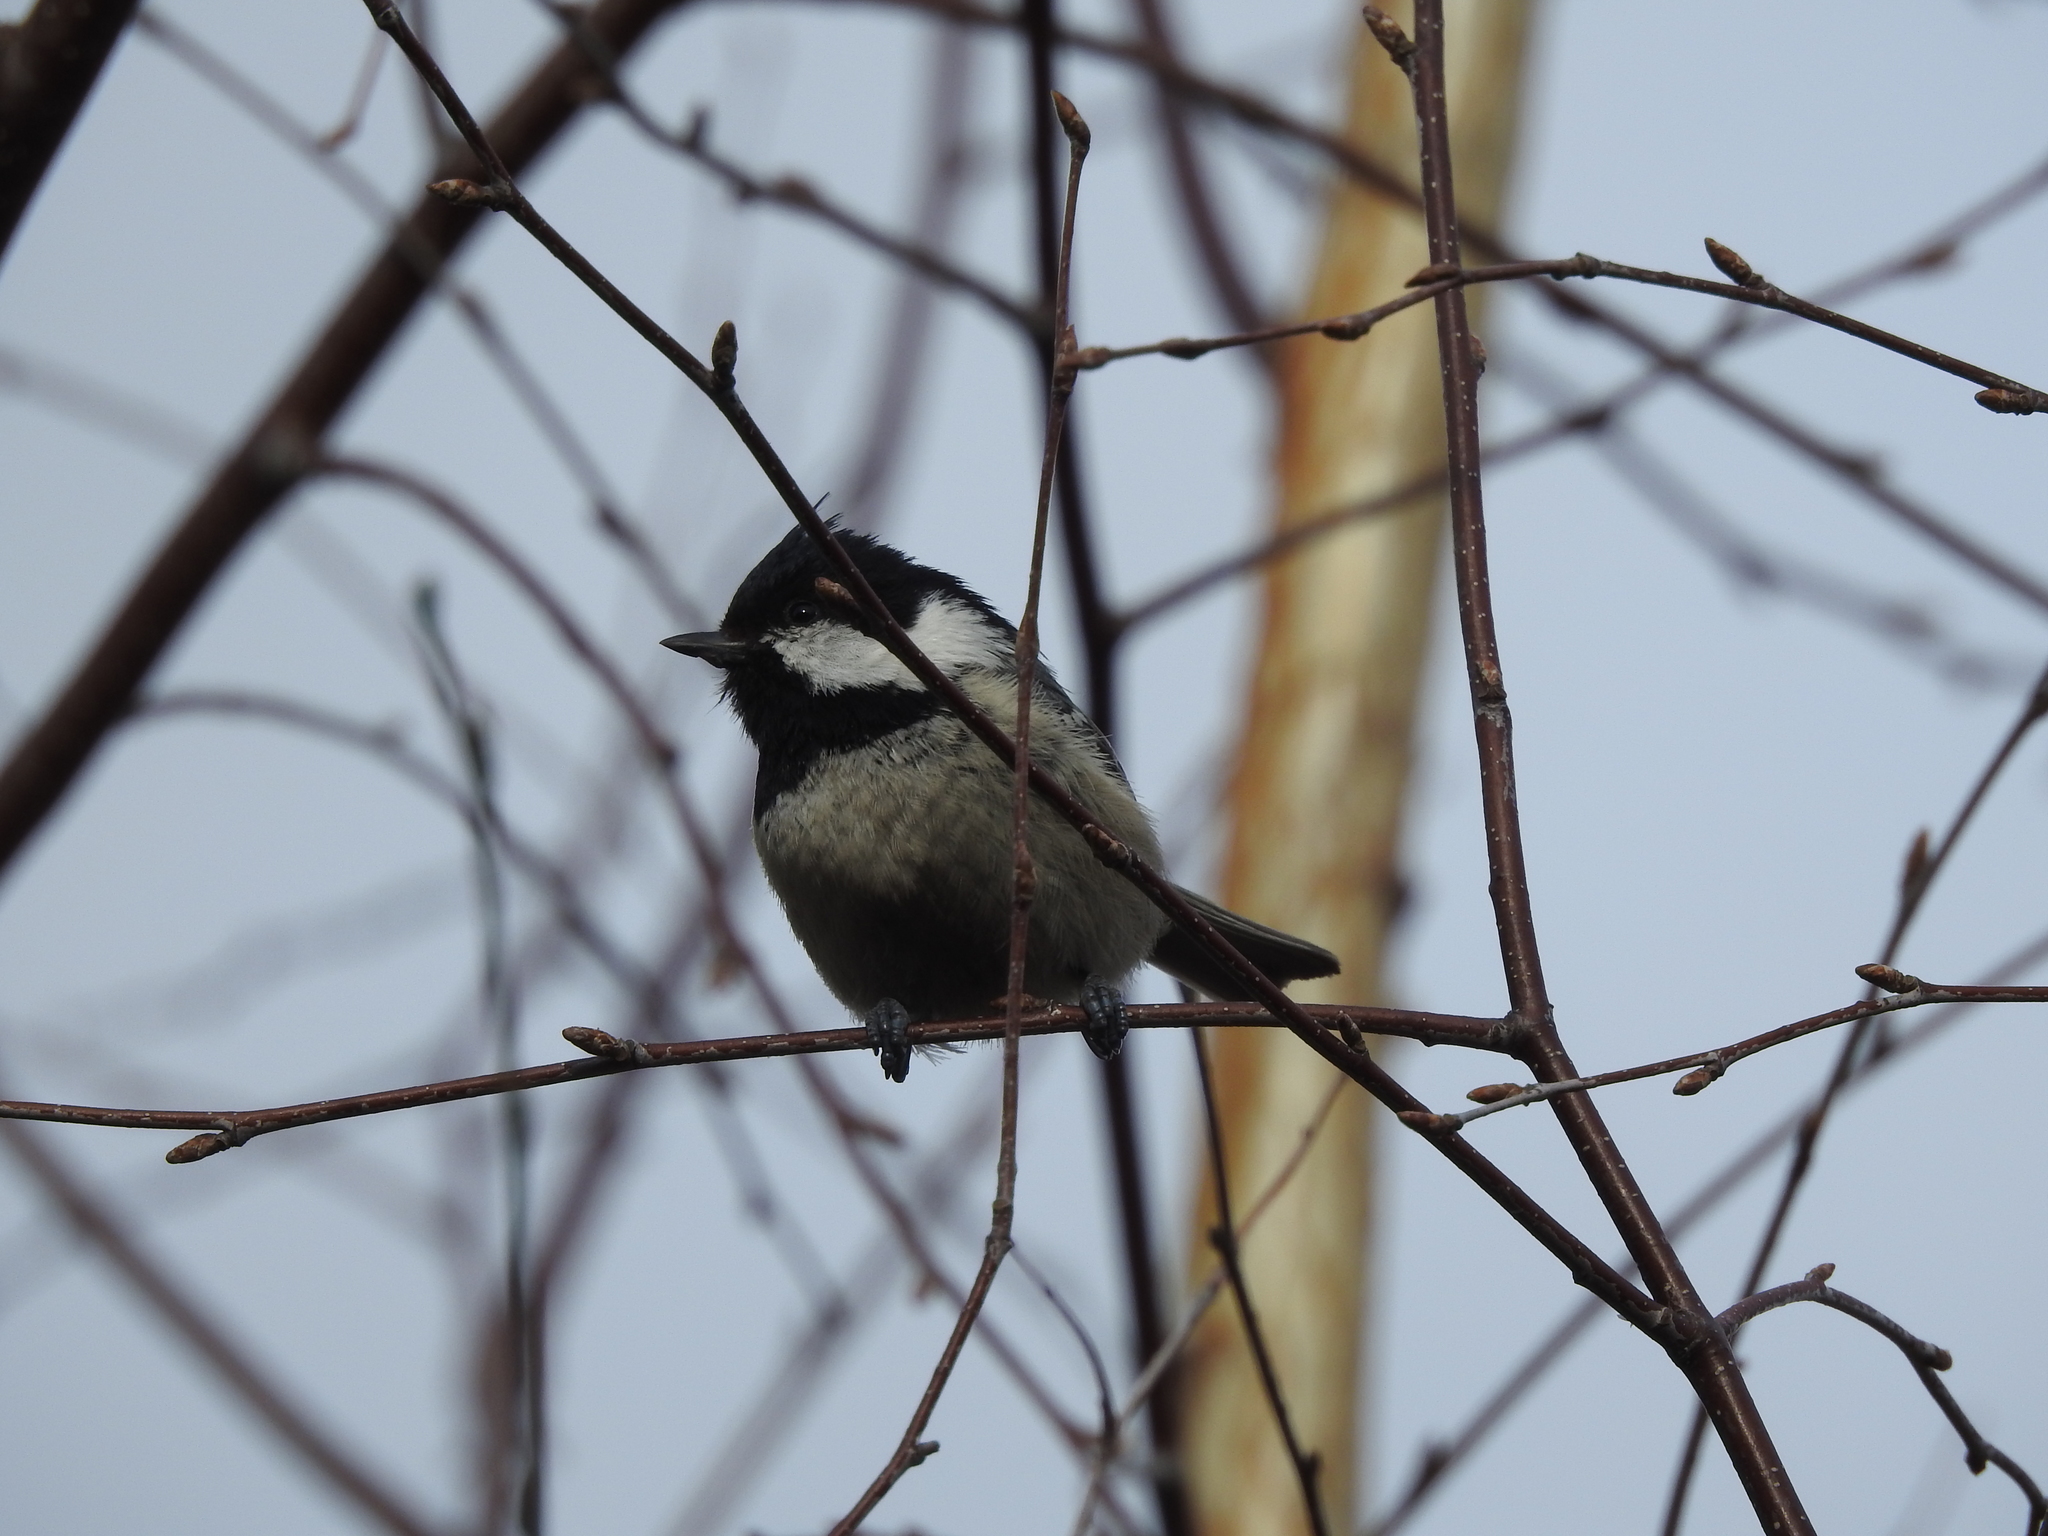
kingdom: Animalia
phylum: Chordata
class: Aves
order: Passeriformes
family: Paridae
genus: Periparus
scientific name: Periparus ater
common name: Coal tit
